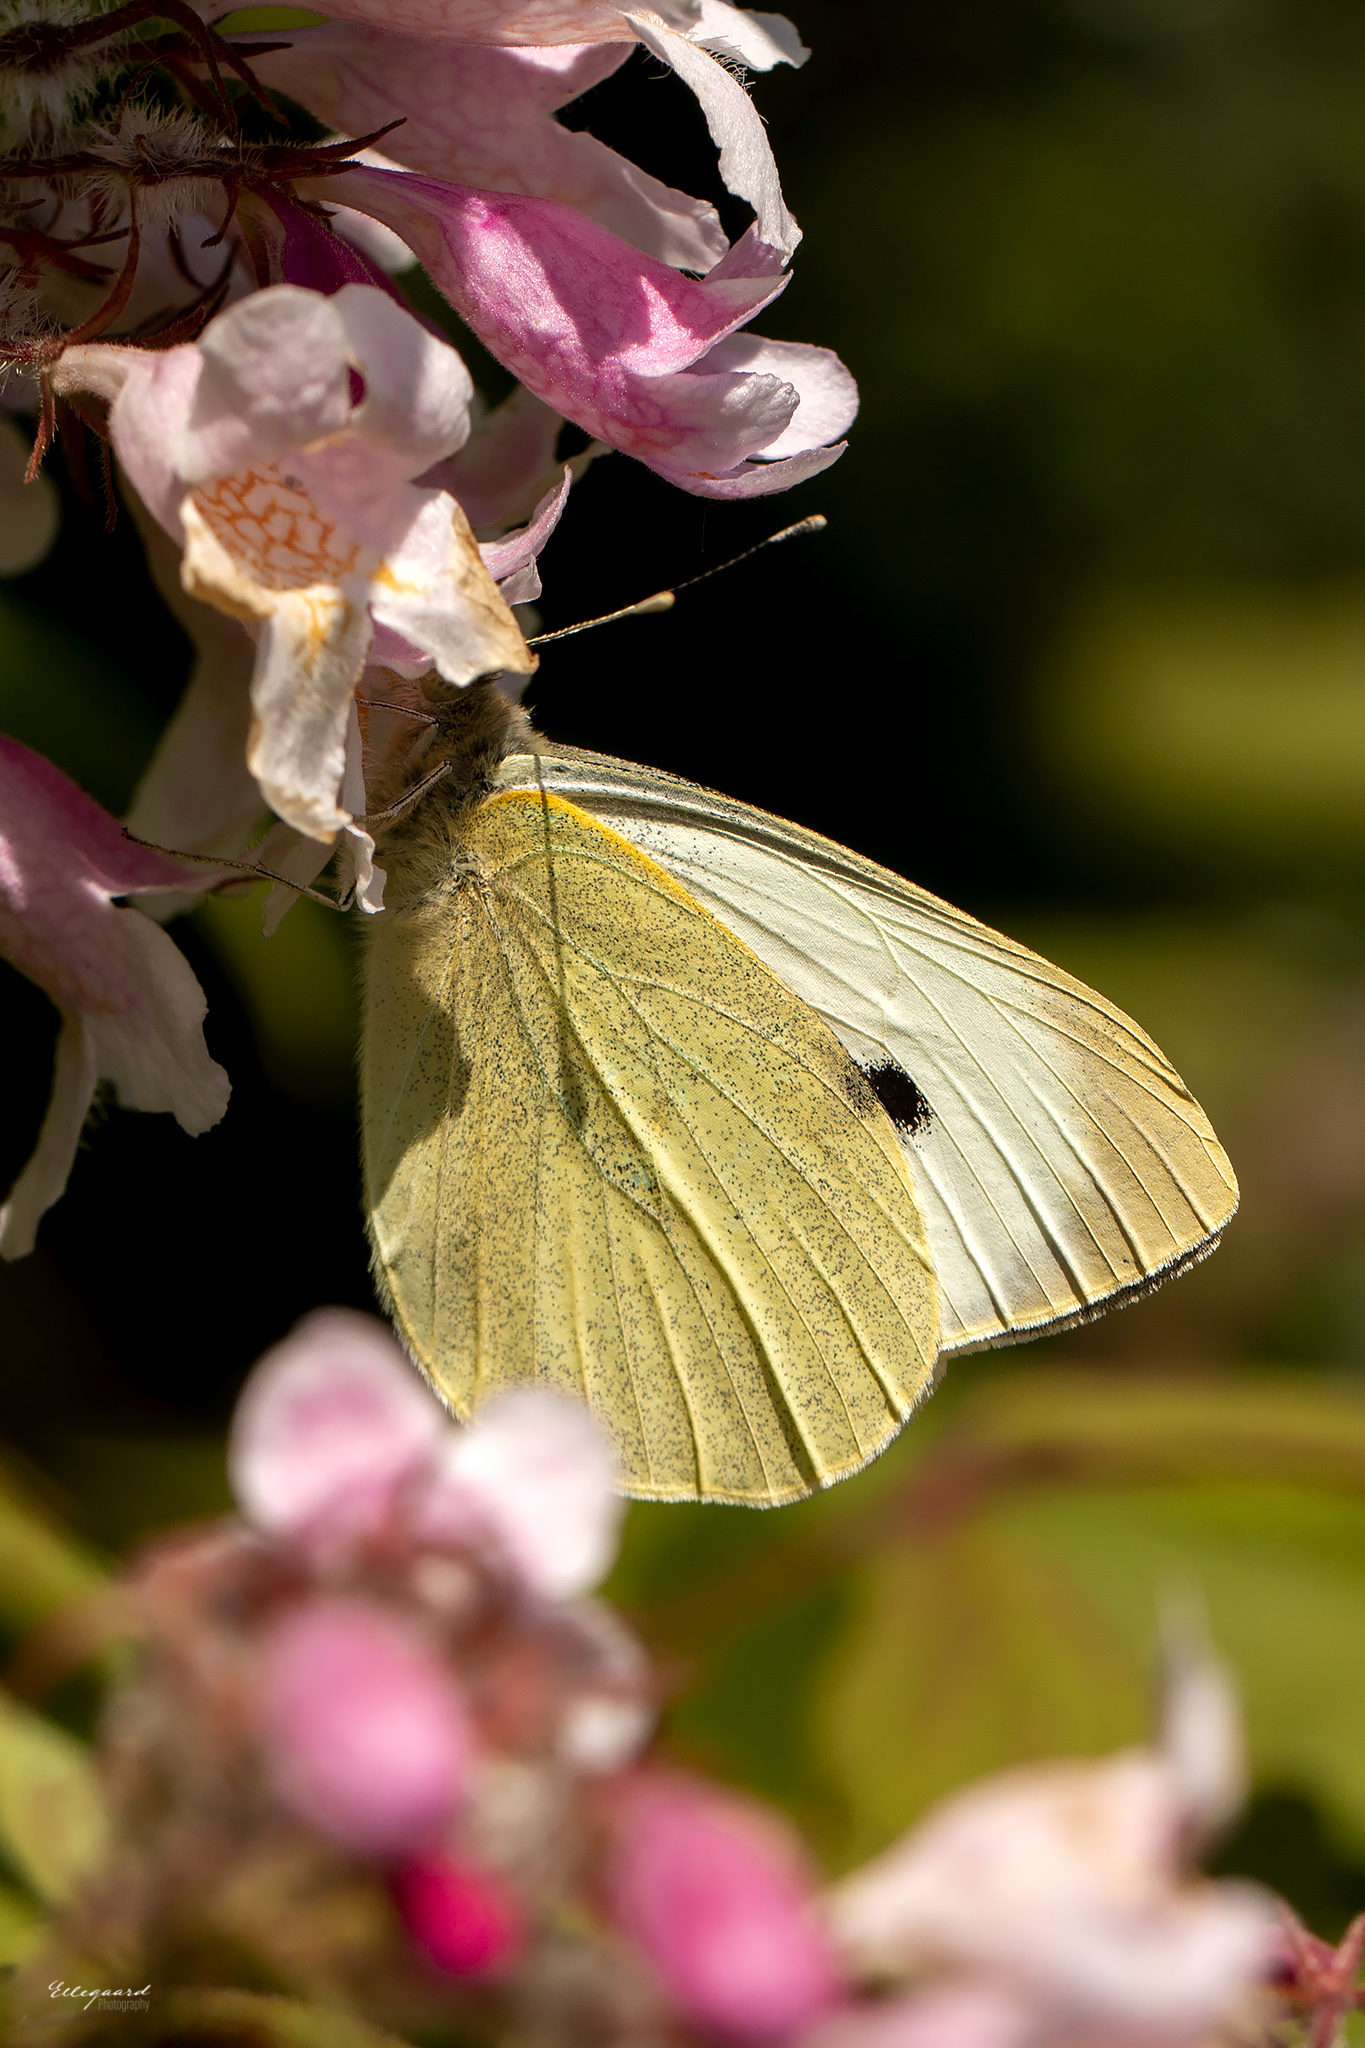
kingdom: Animalia
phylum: Arthropoda
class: Insecta
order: Lepidoptera
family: Pieridae
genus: Pieris
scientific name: Pieris brassicae
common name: Large white
